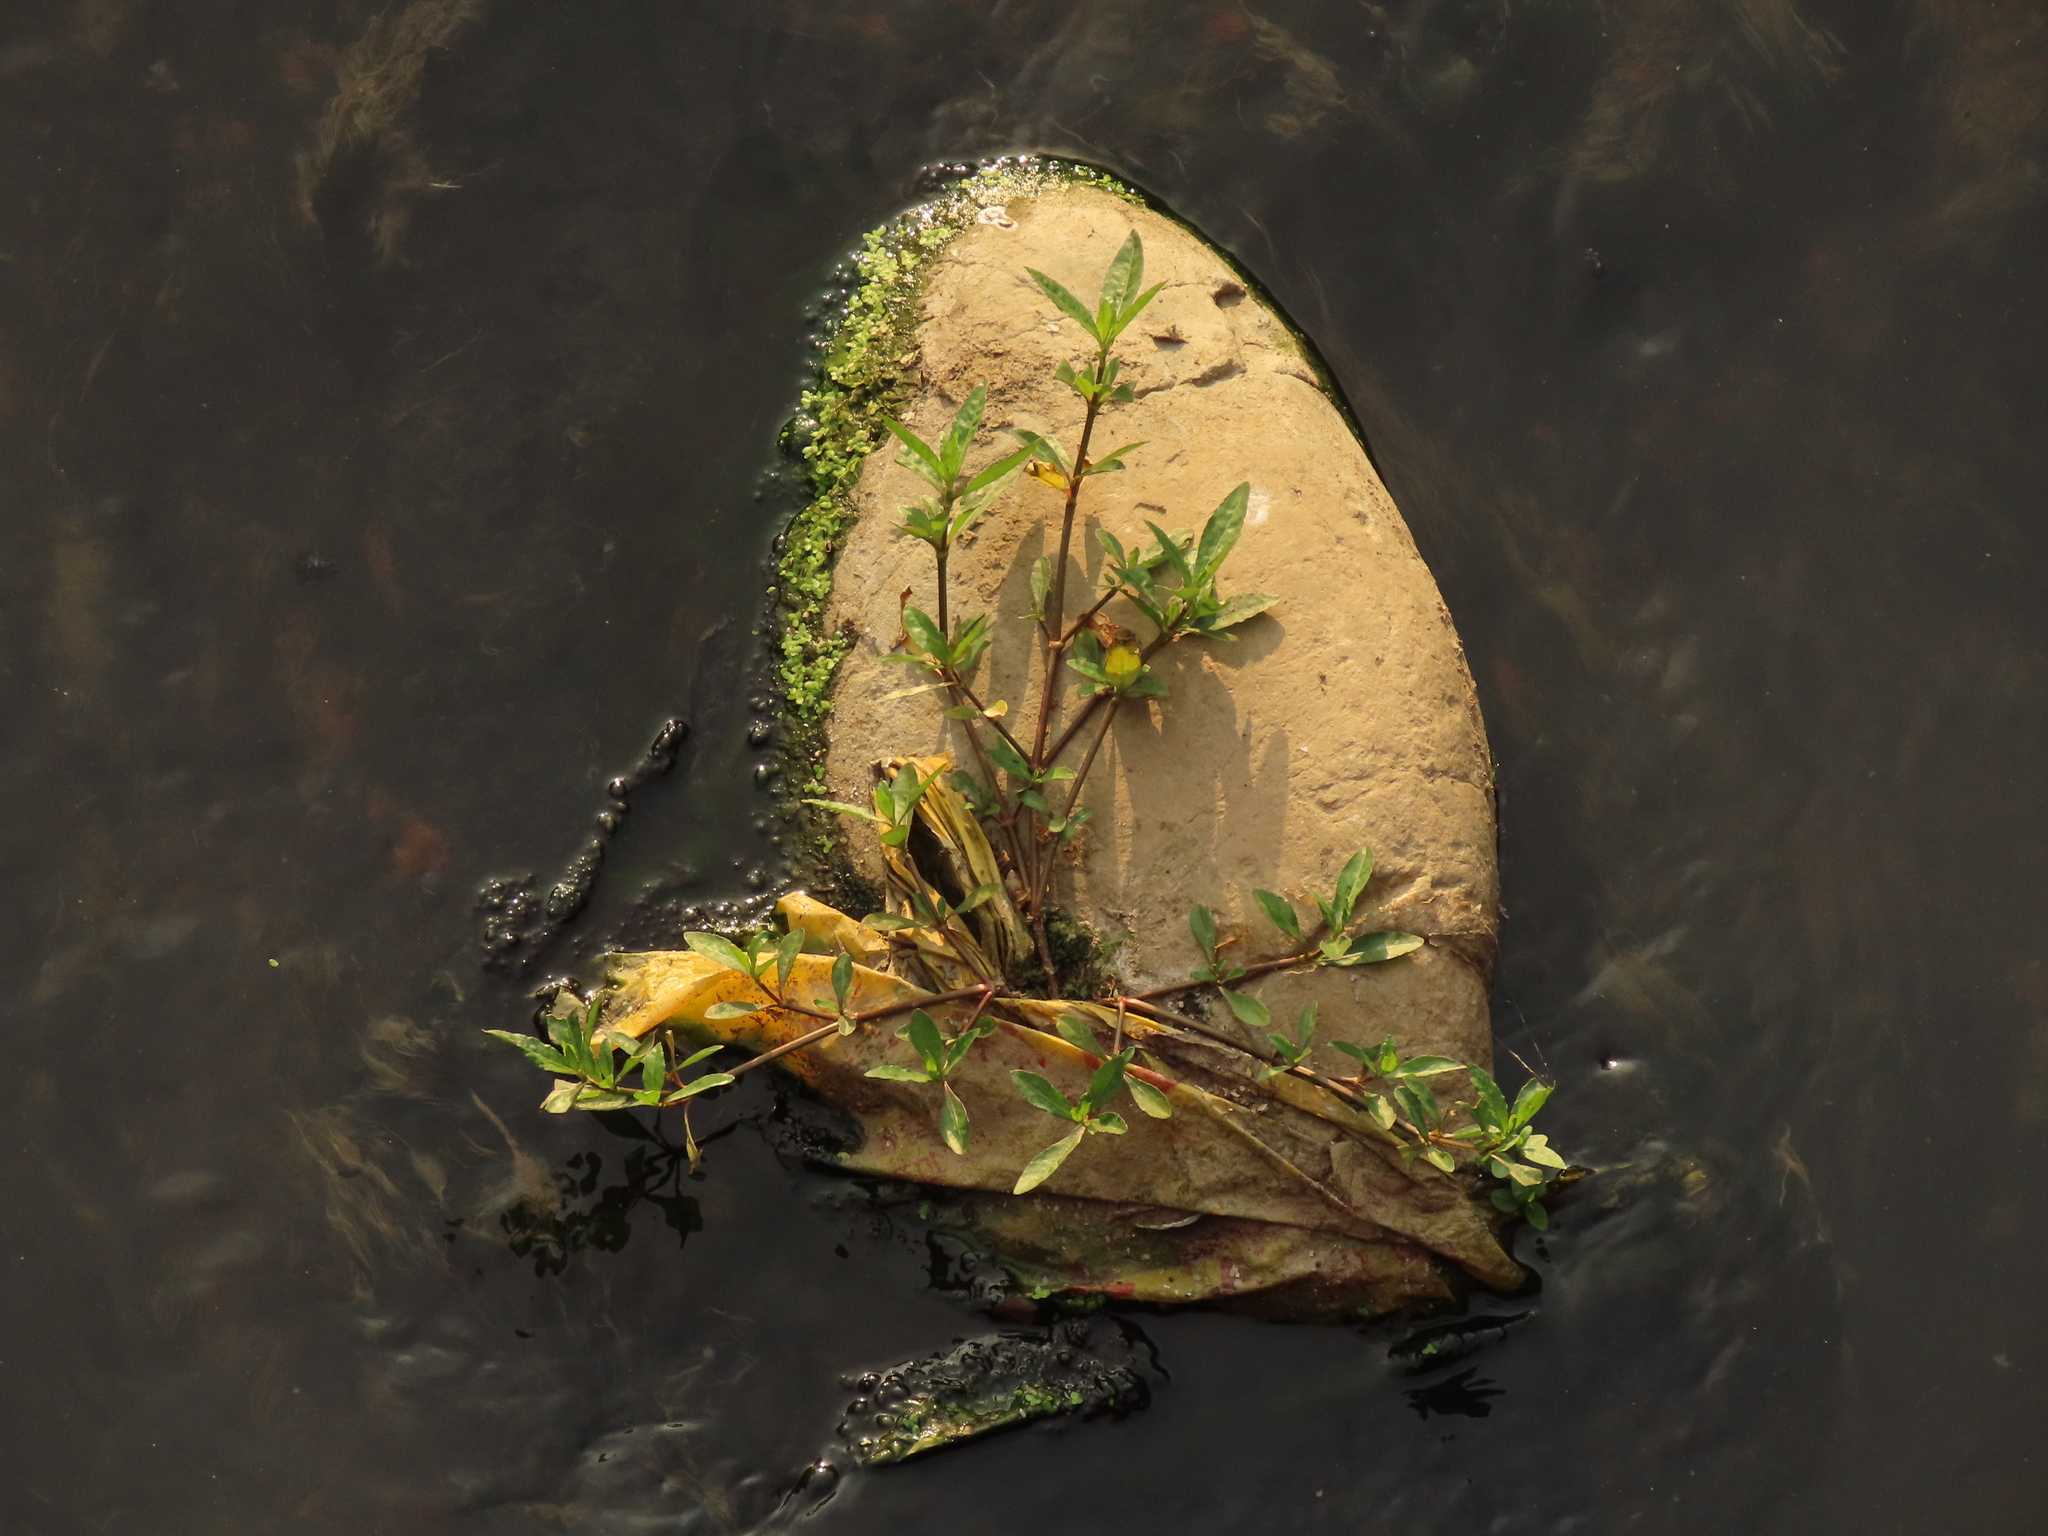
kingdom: Plantae
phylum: Tracheophyta
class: Magnoliopsida
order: Caryophyllales
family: Amaranthaceae
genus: Alternanthera
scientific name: Alternanthera philoxeroides
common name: Alligatorweed
